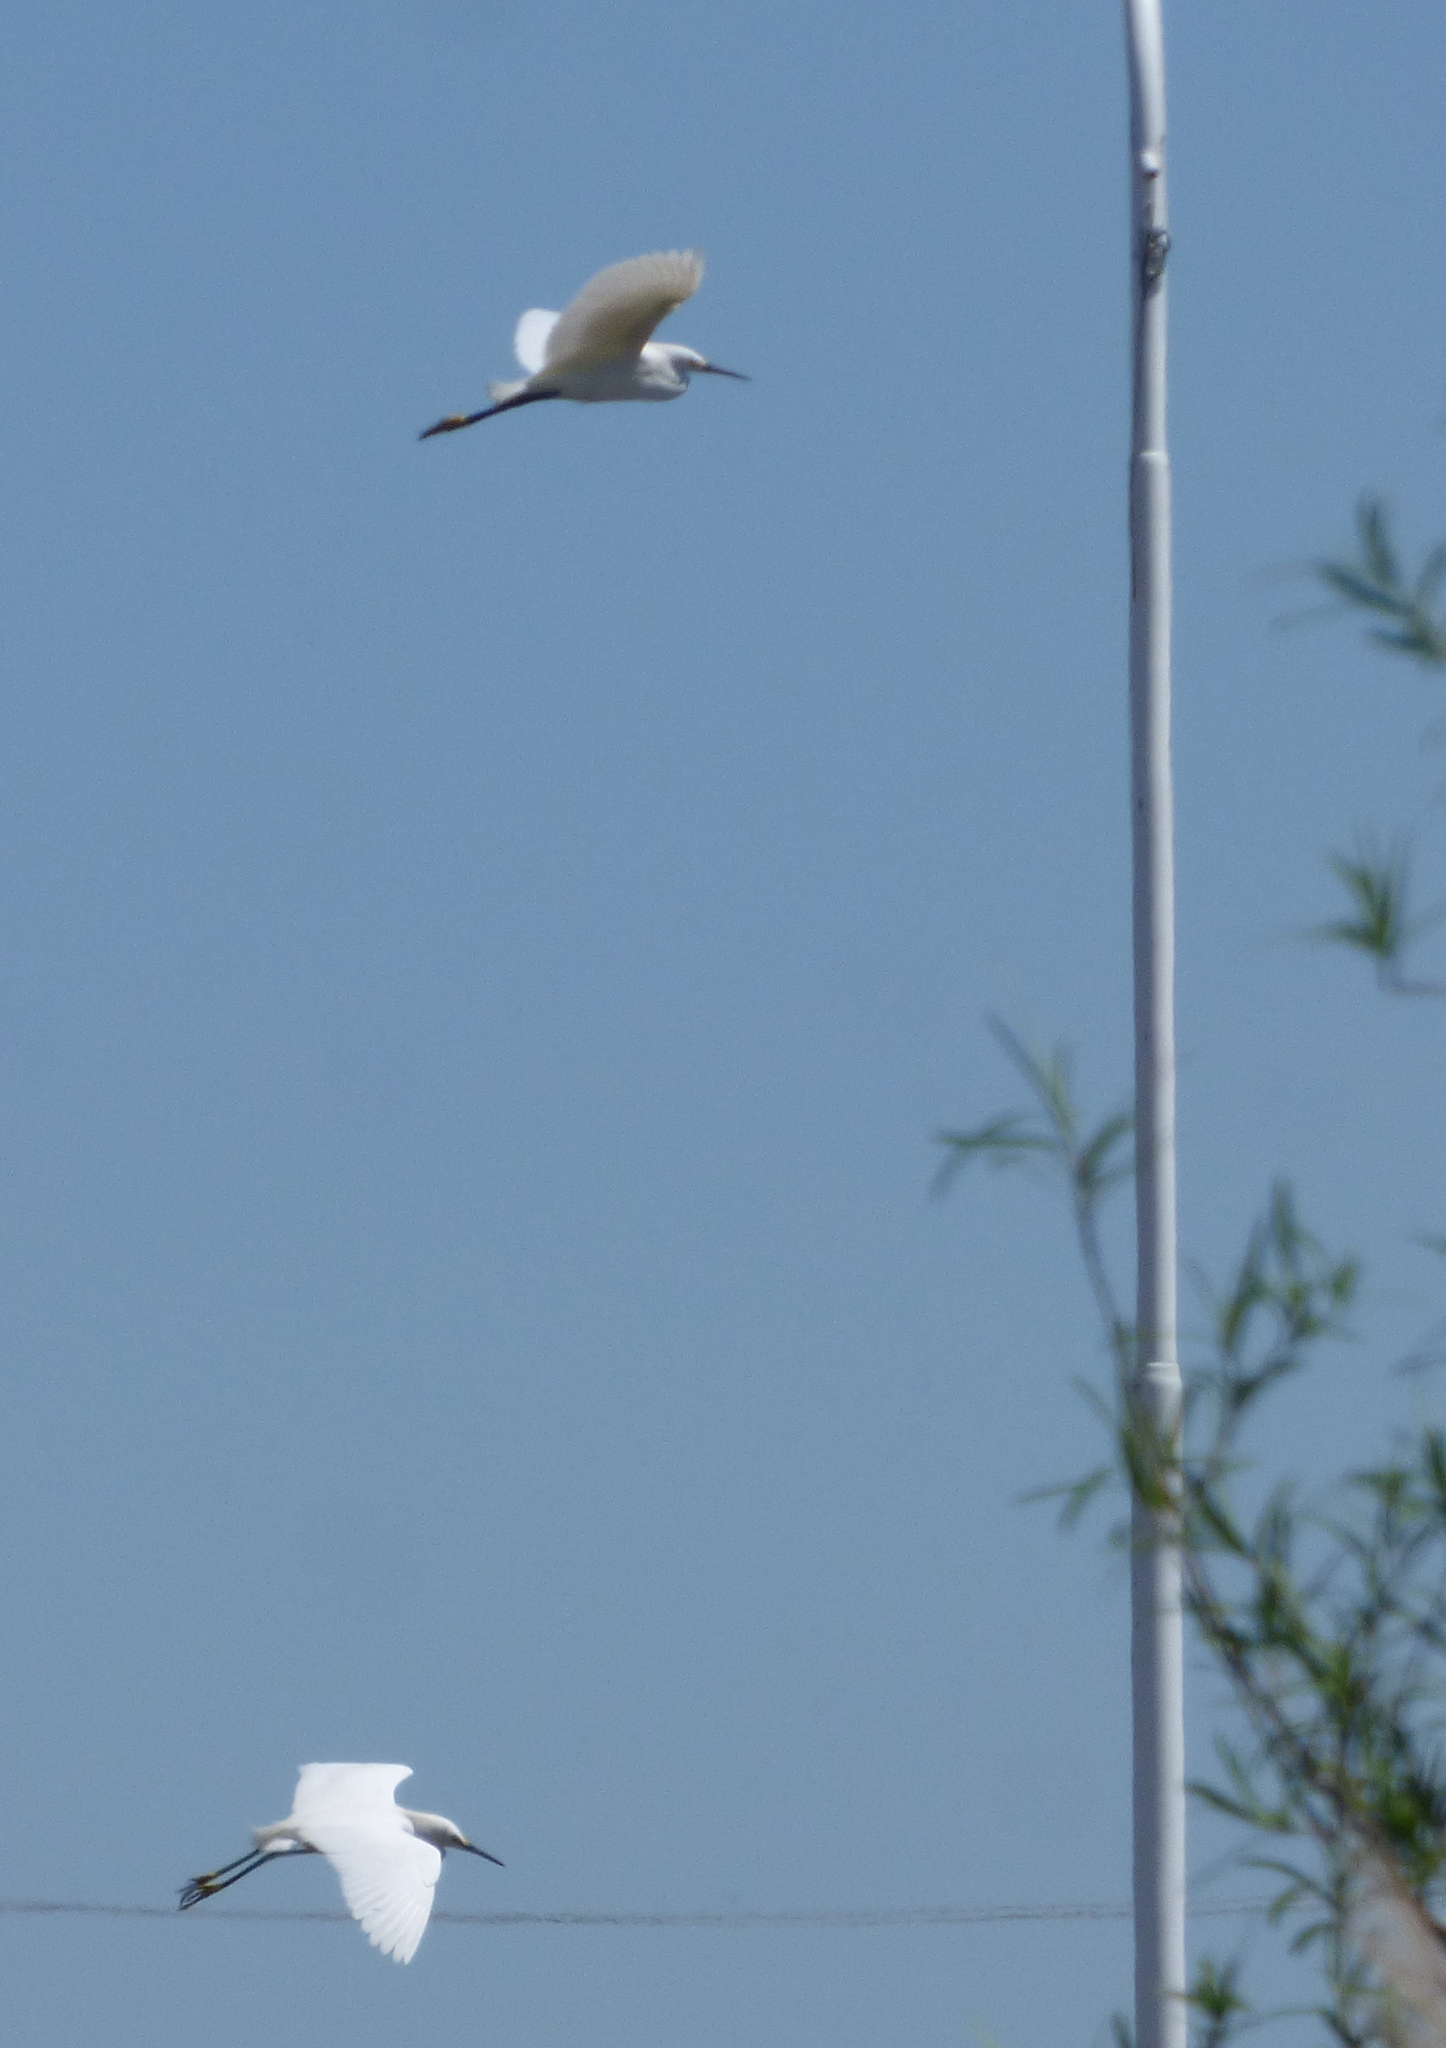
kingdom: Animalia
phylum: Chordata
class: Aves
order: Pelecaniformes
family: Ardeidae
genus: Egretta
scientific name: Egretta thula
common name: Snowy egret
